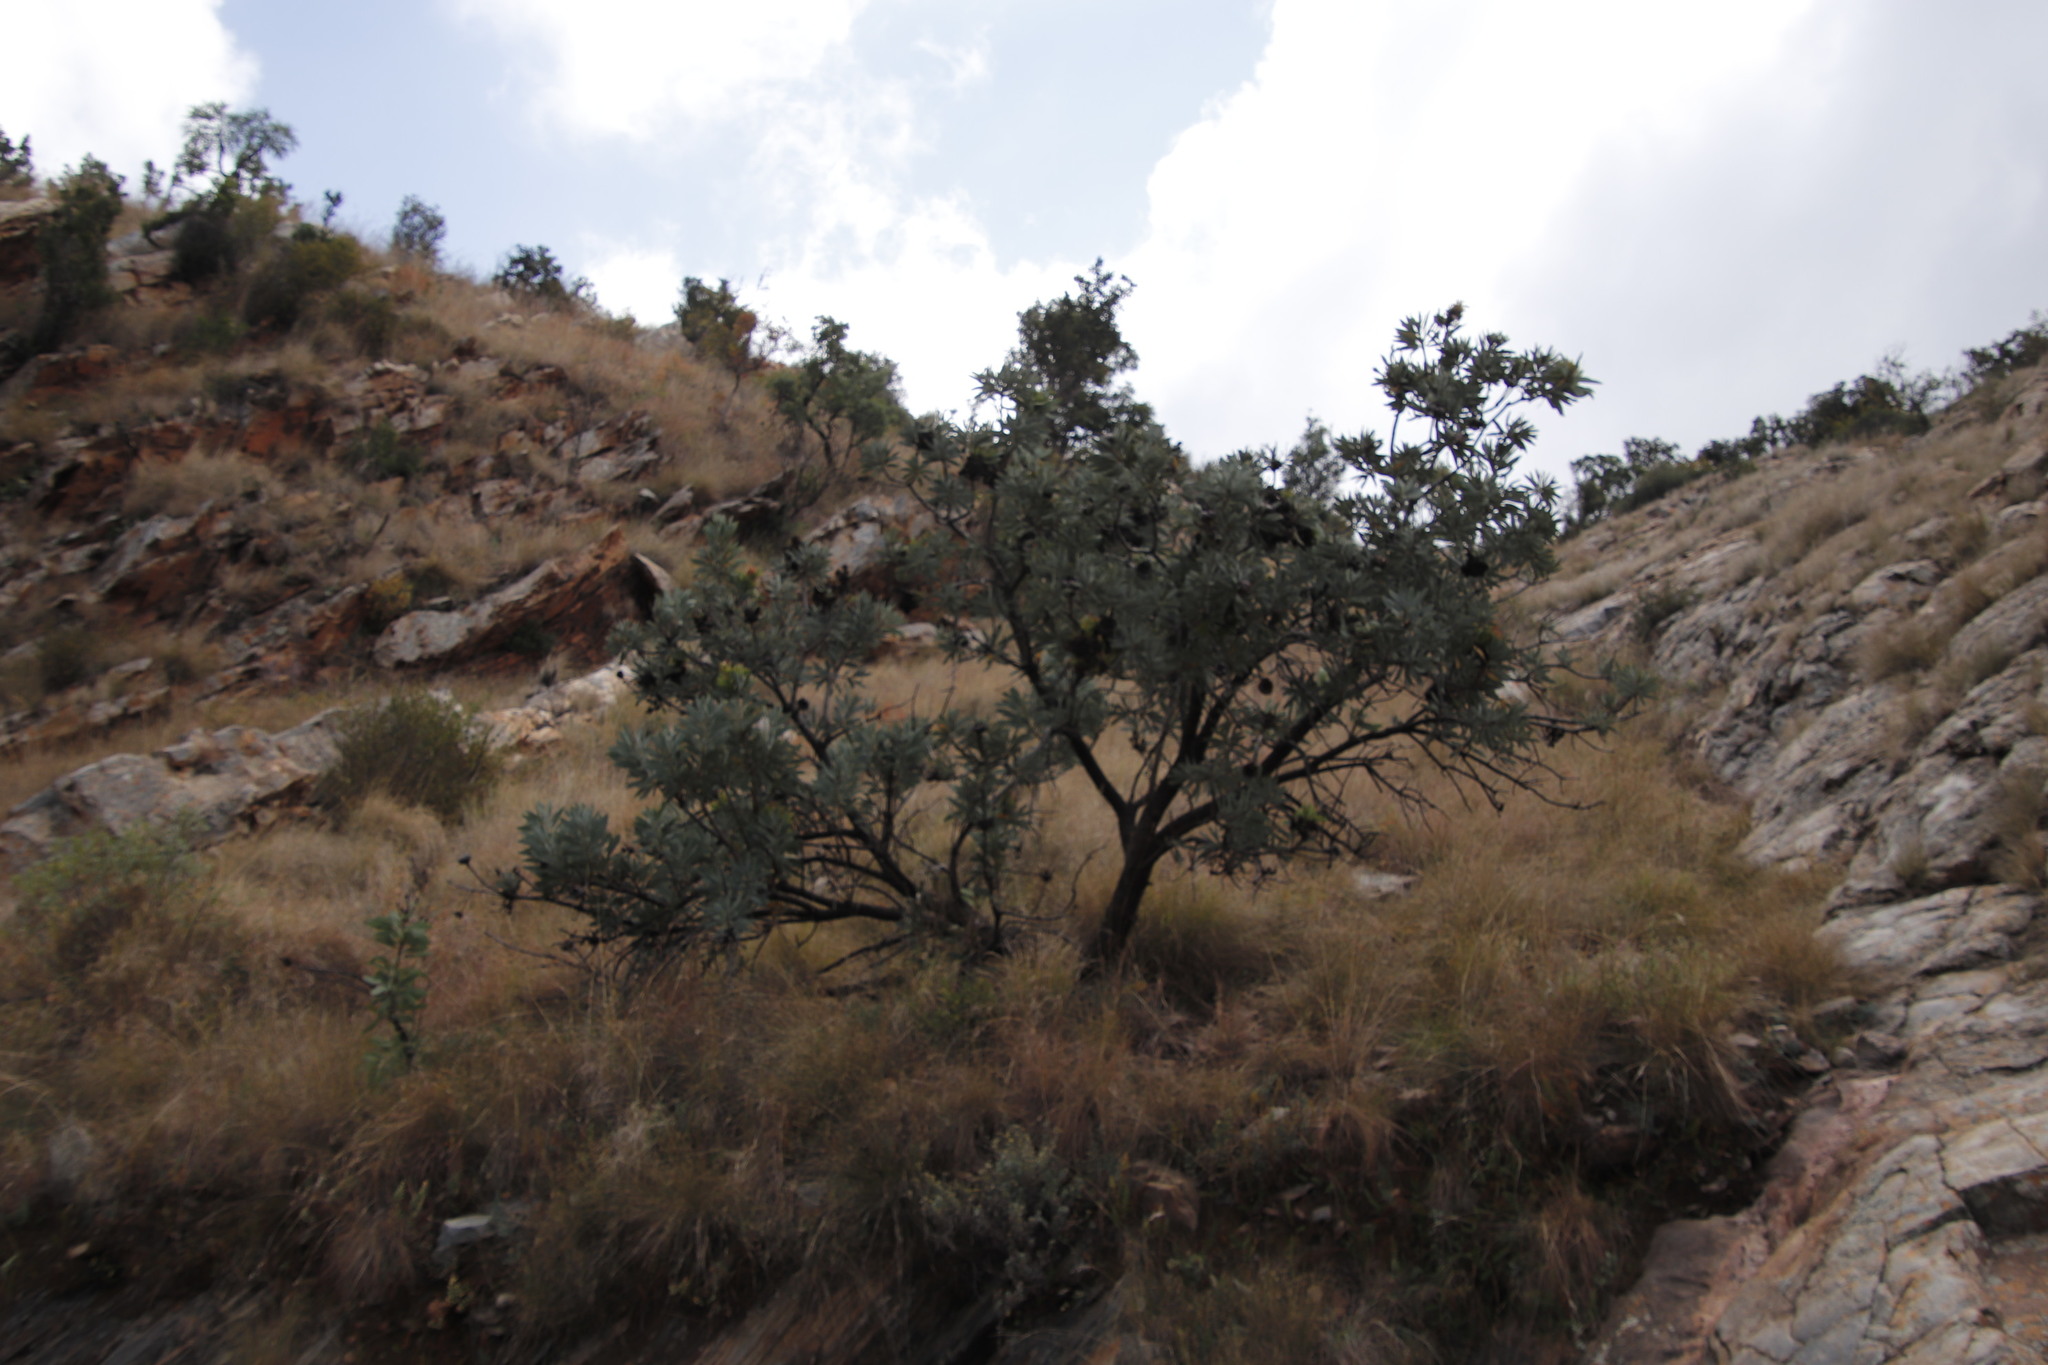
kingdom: Plantae
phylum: Tracheophyta
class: Magnoliopsida
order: Proteales
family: Proteaceae
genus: Protea
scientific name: Protea caffra
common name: Common sugarbush
